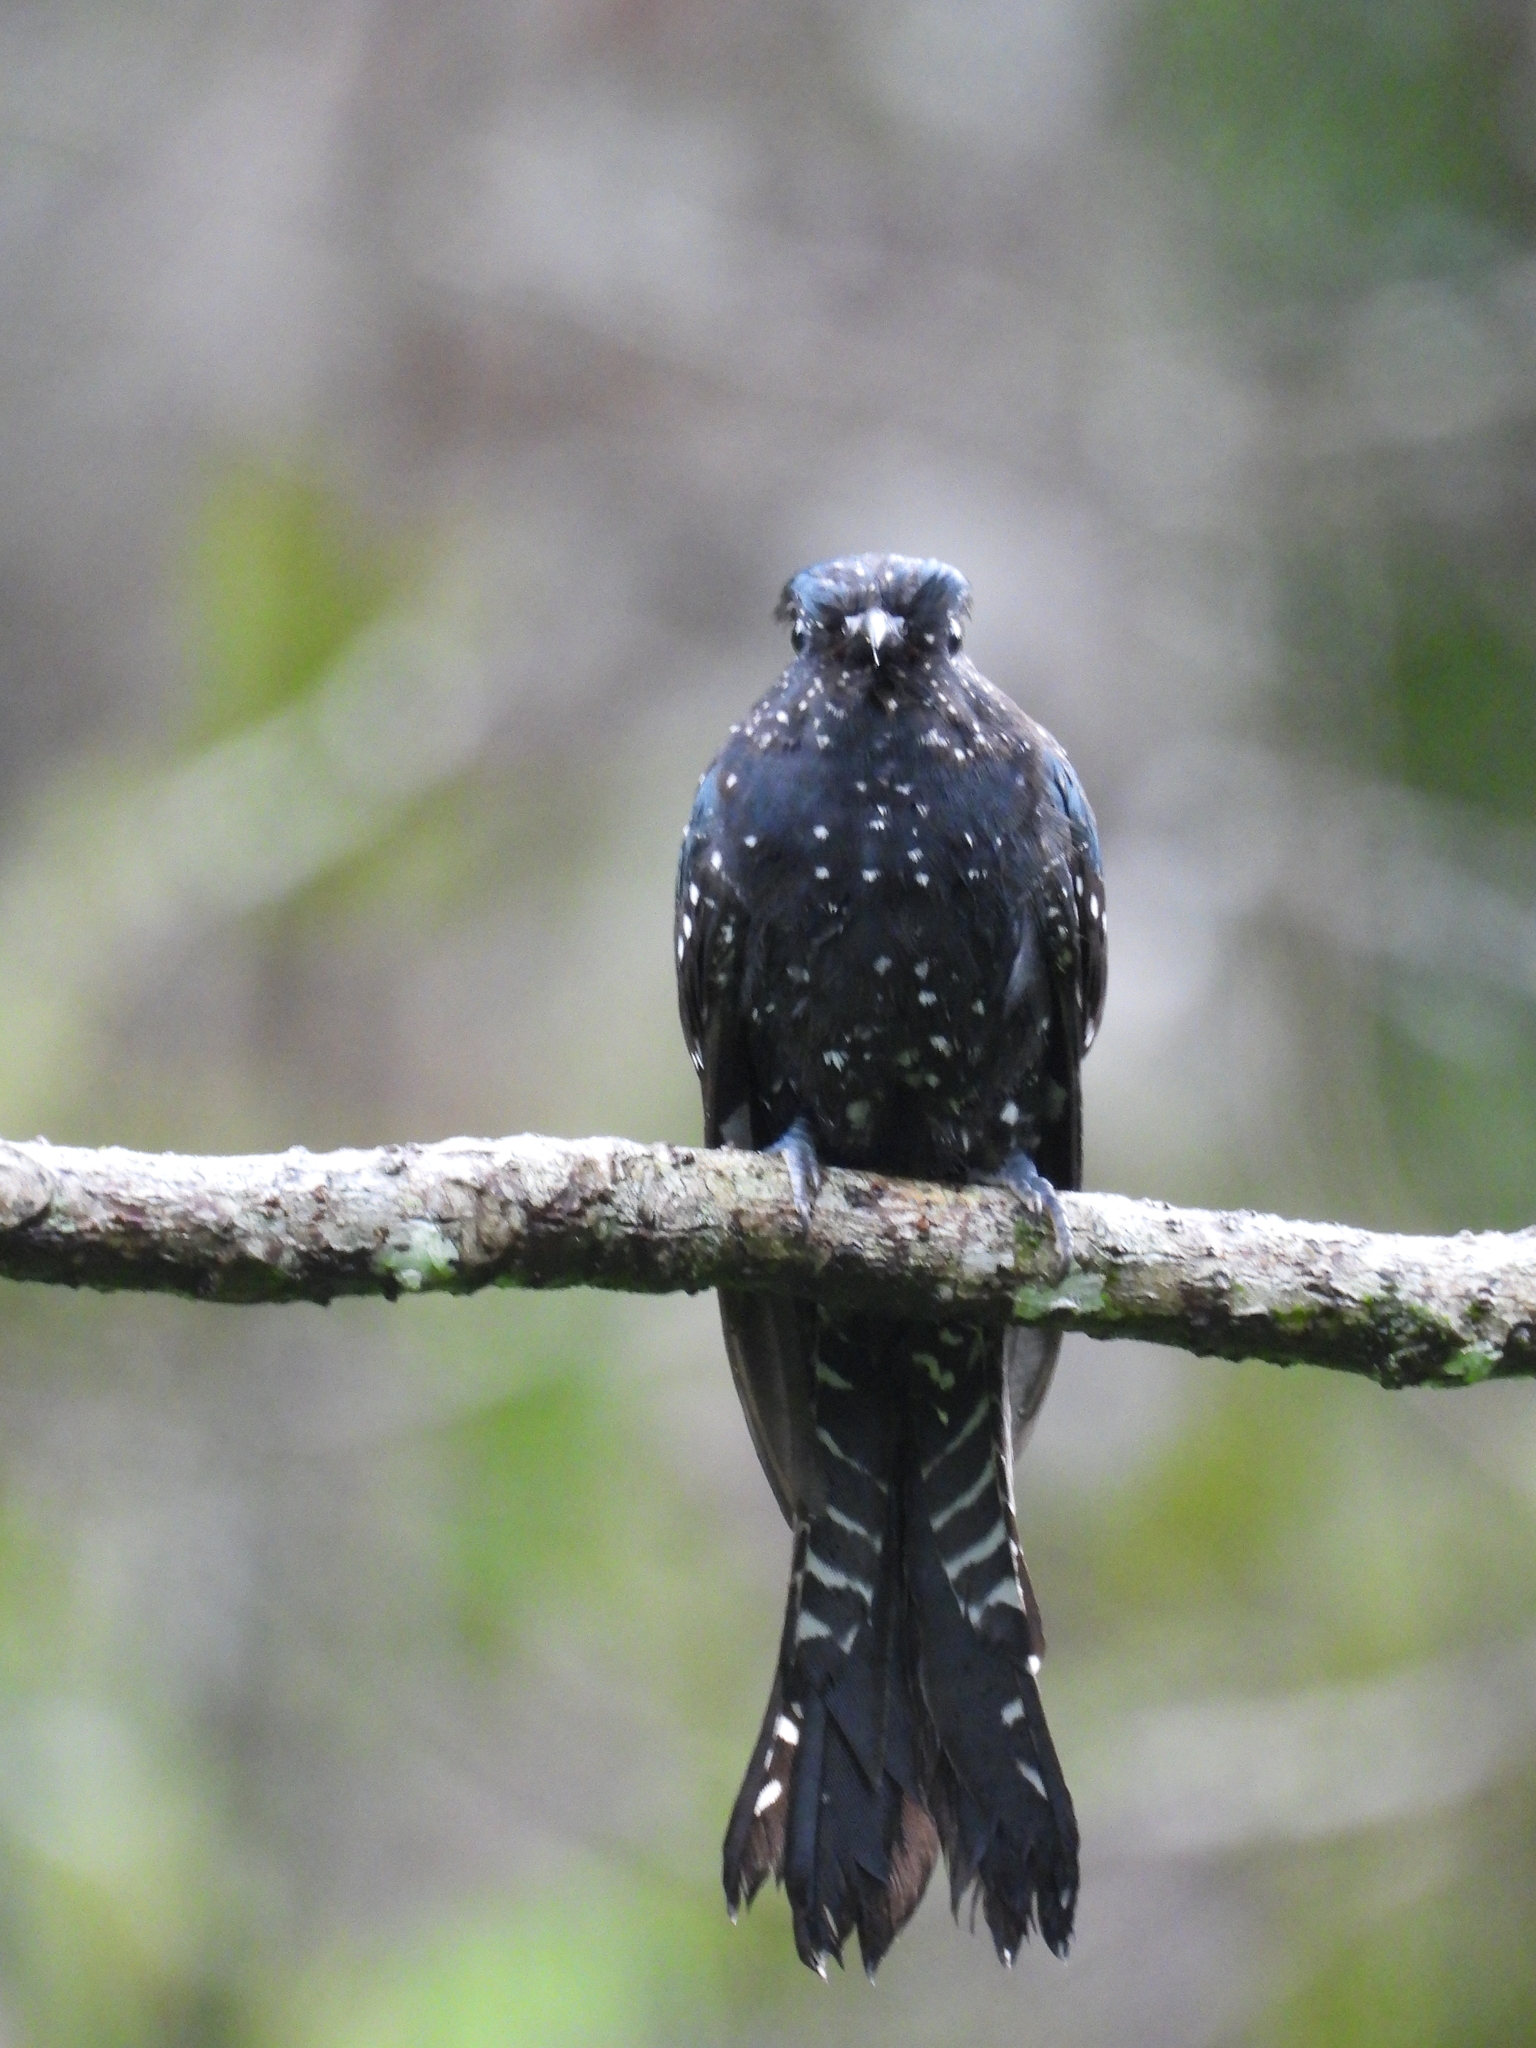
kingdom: Animalia
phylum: Chordata
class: Aves
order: Cuculiformes
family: Cuculidae
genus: Surniculus
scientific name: Surniculus lugubris
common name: Square-tailed drongo-cuckoo
